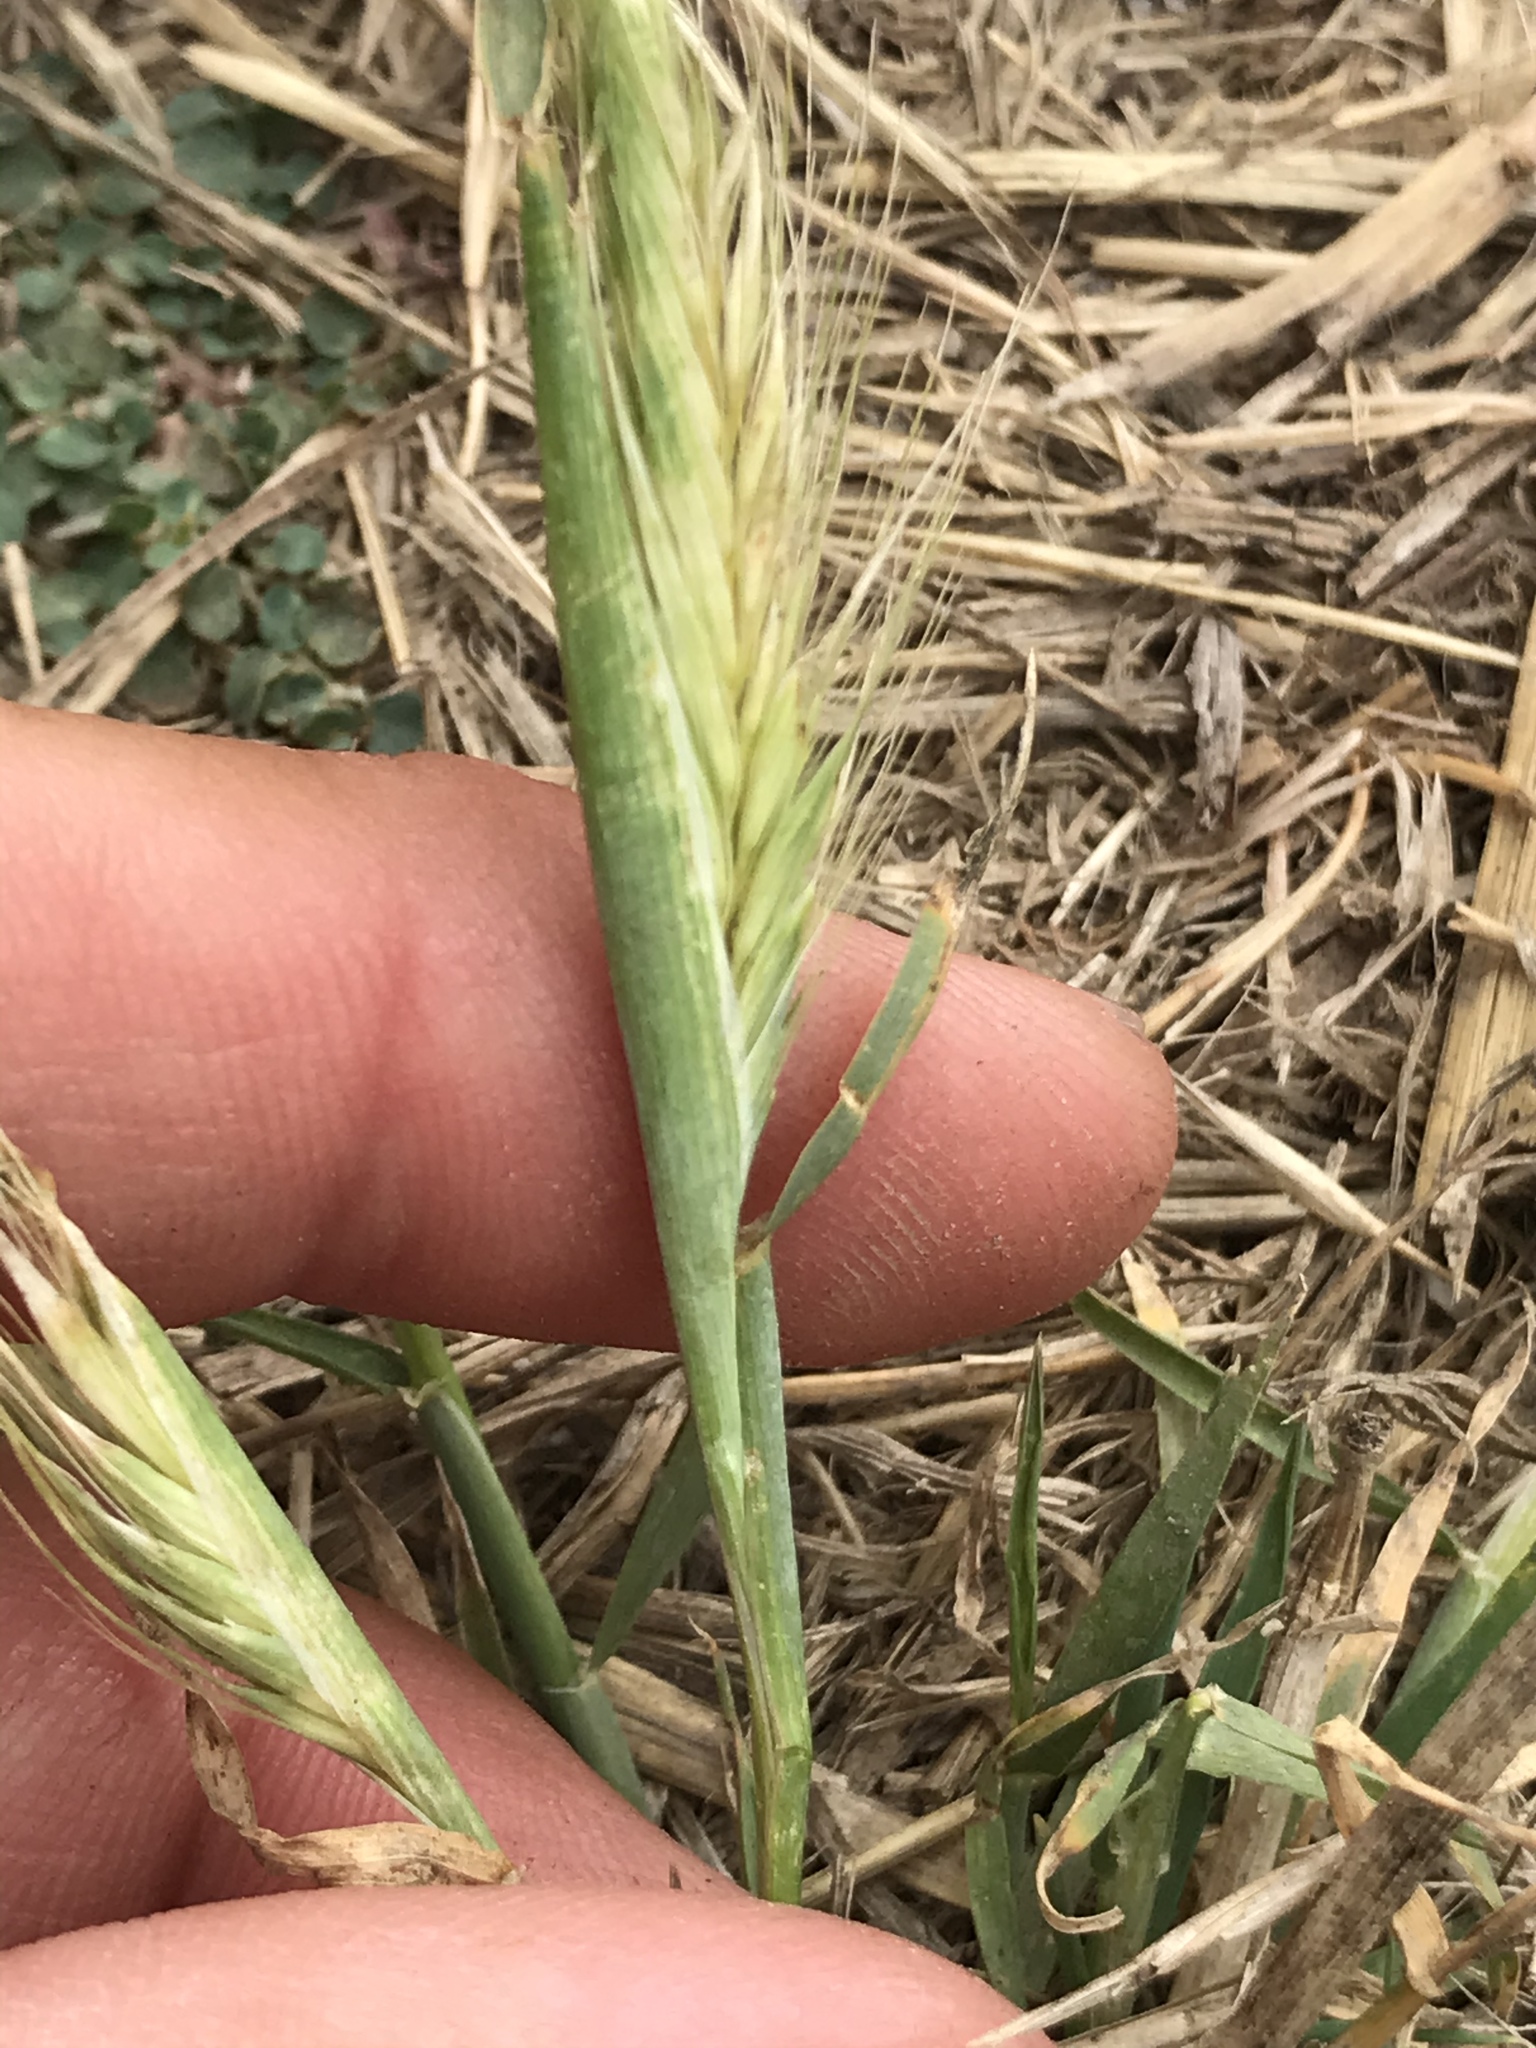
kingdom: Plantae
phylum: Tracheophyta
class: Liliopsida
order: Poales
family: Poaceae
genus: Hordeum
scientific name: Hordeum murinum
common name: Wall barley
